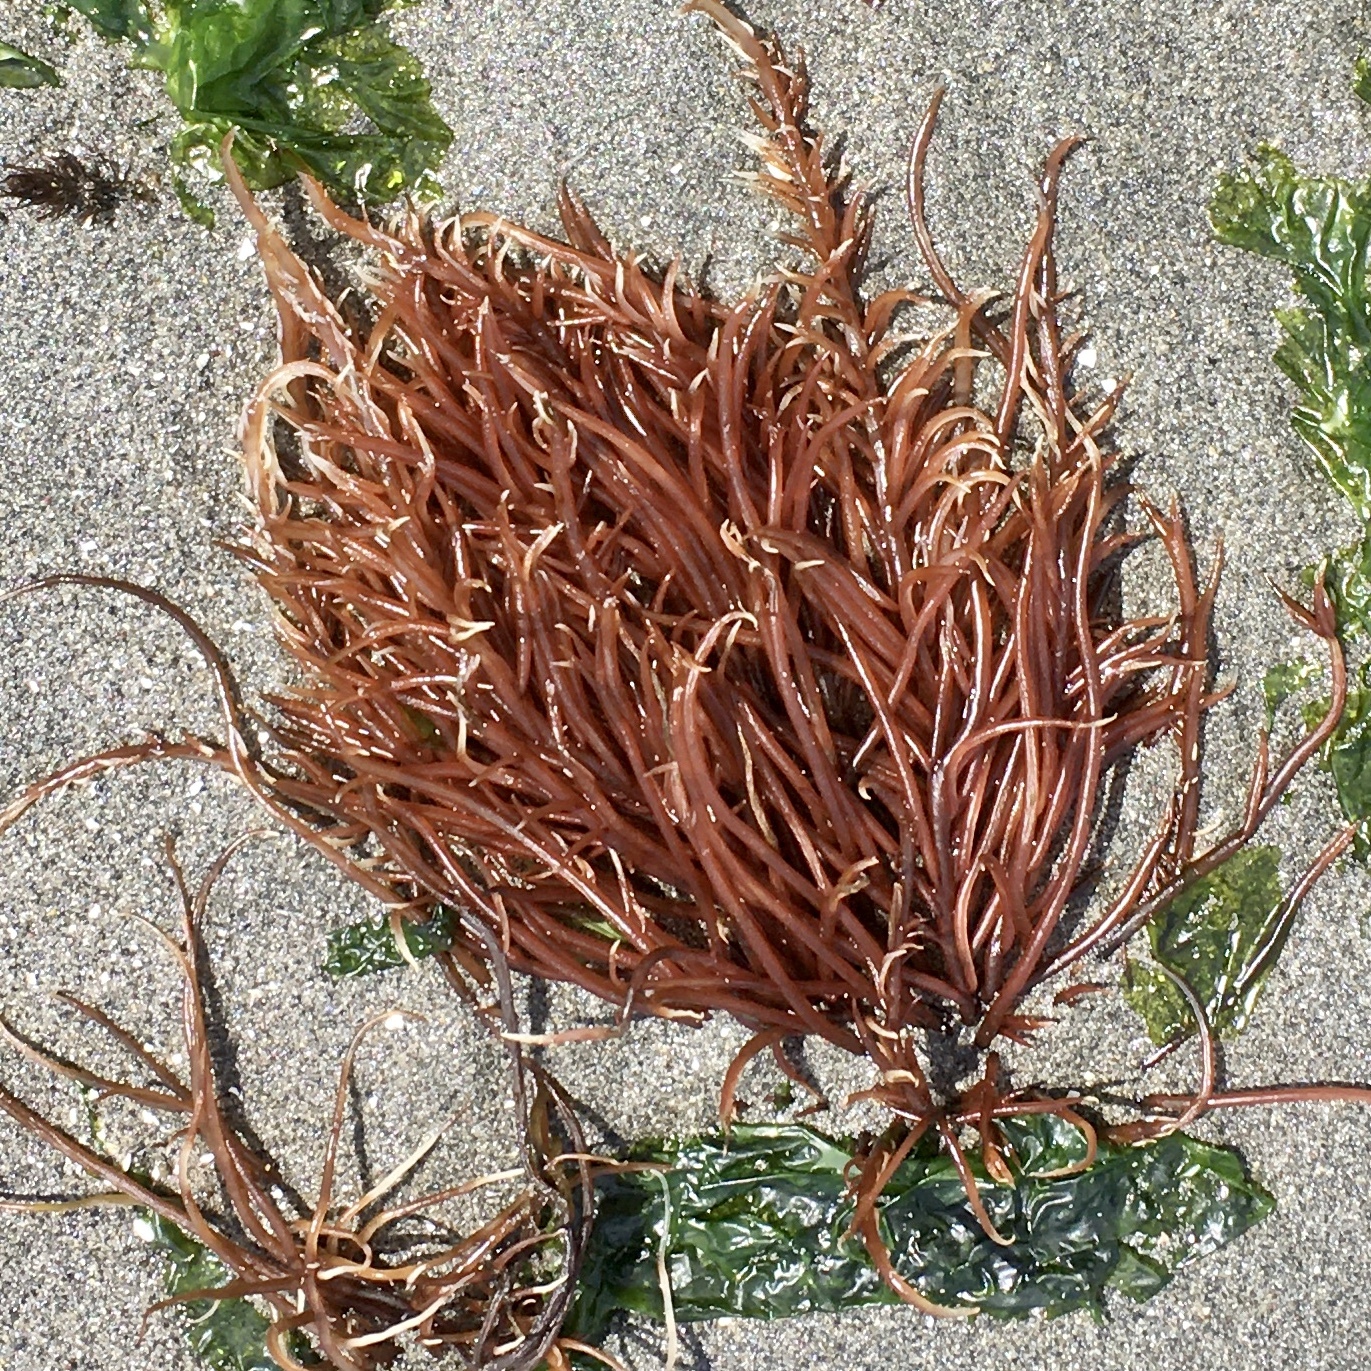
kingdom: Plantae
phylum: Rhodophyta
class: Florideophyceae
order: Gigartinales
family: Solieriaceae
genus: Sarcodiotheca
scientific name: Sarcodiotheca gaudichaudii
